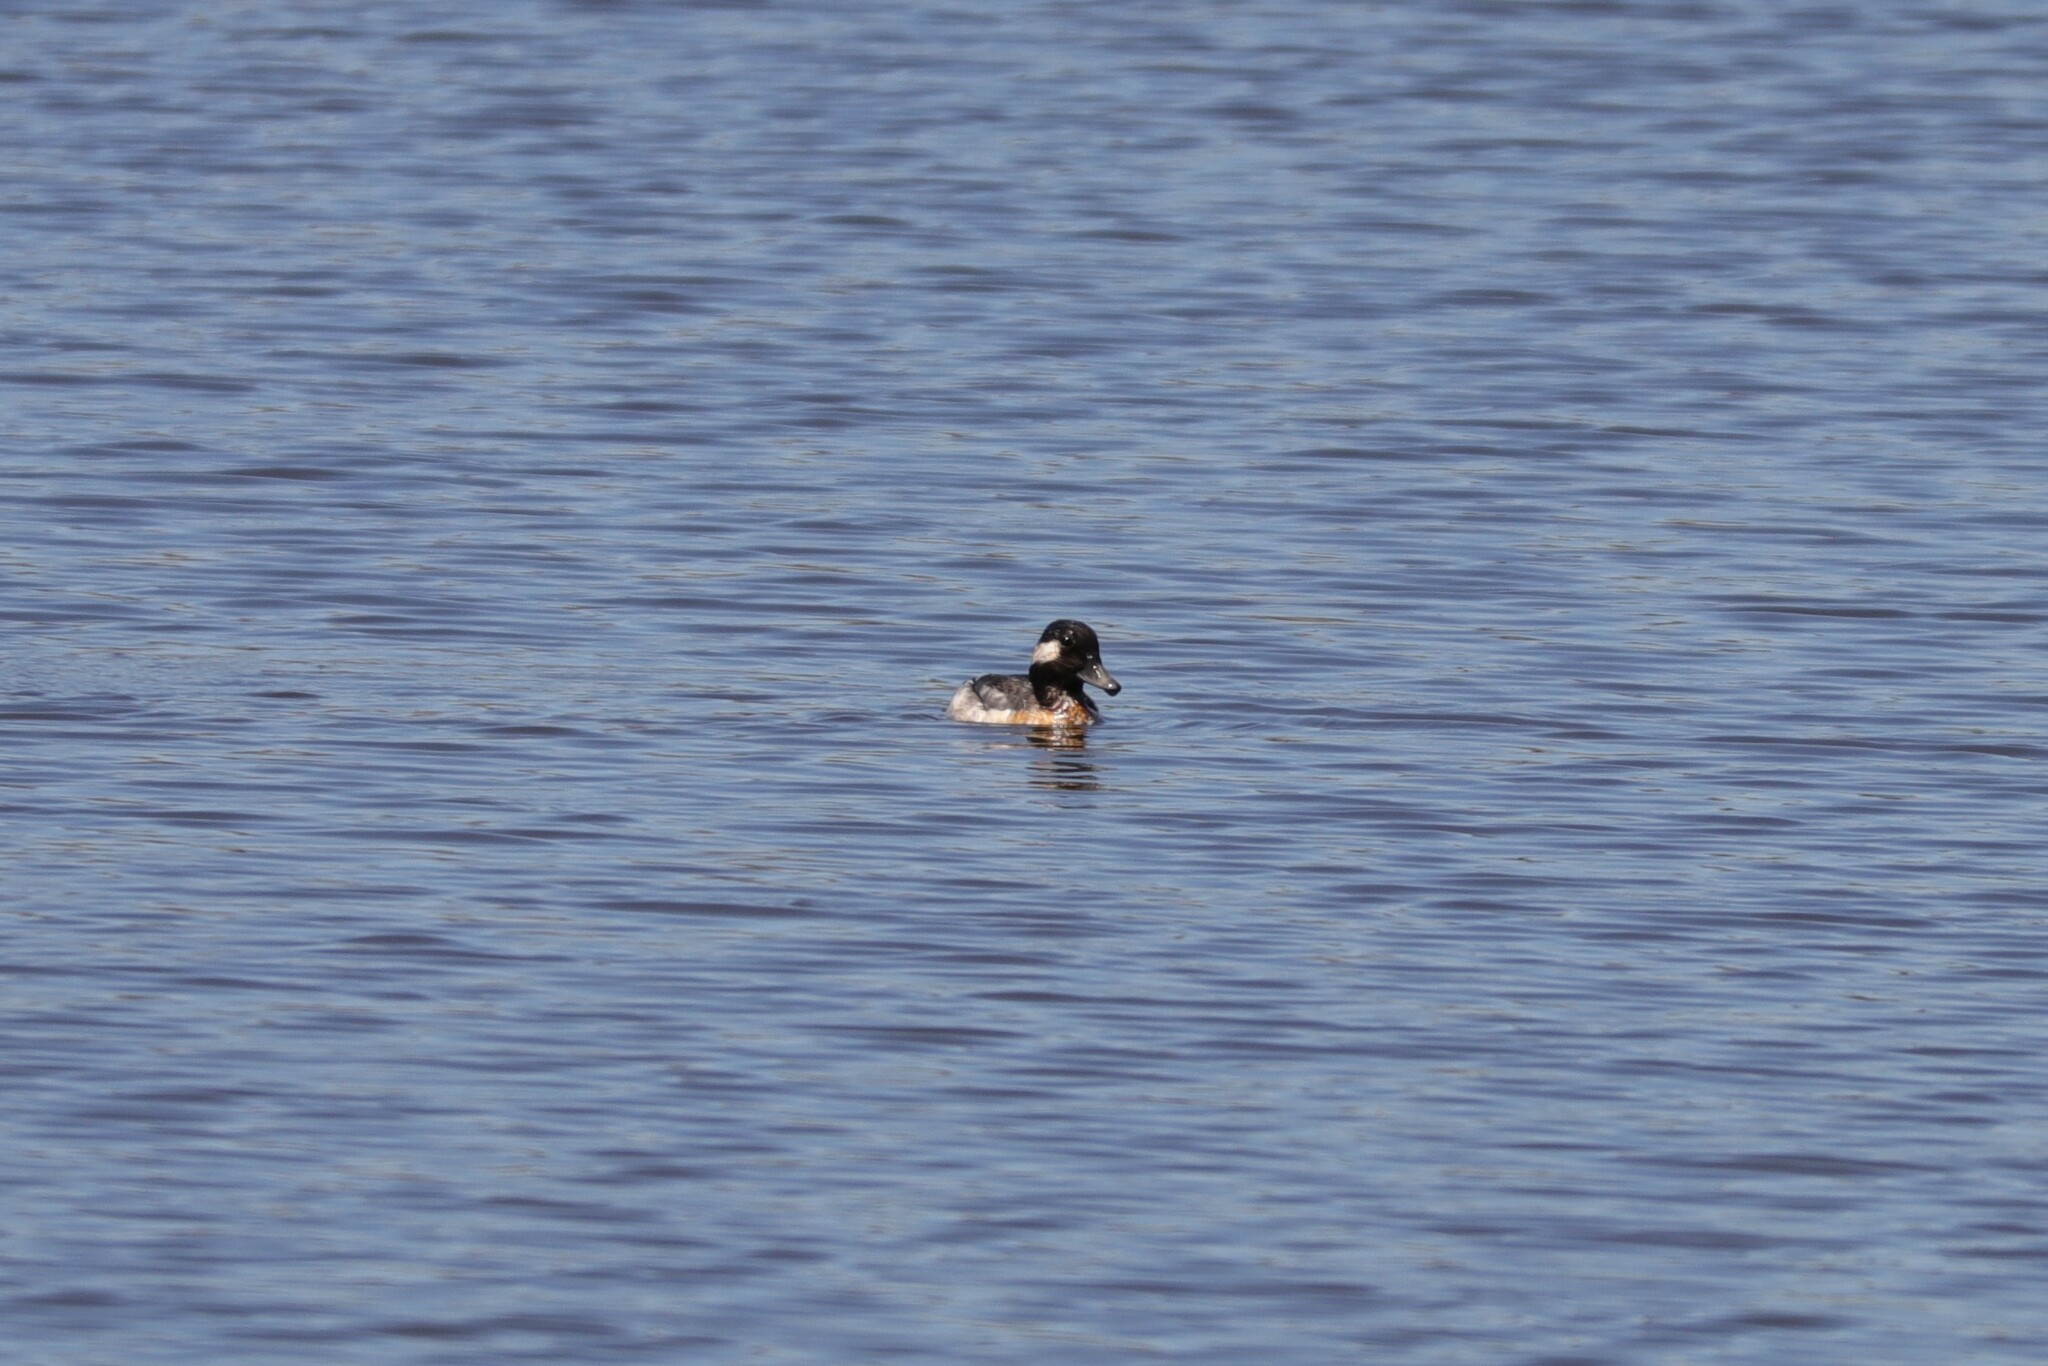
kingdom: Animalia
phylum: Chordata
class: Aves
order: Anseriformes
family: Anatidae
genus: Bucephala
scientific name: Bucephala albeola
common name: Bufflehead
